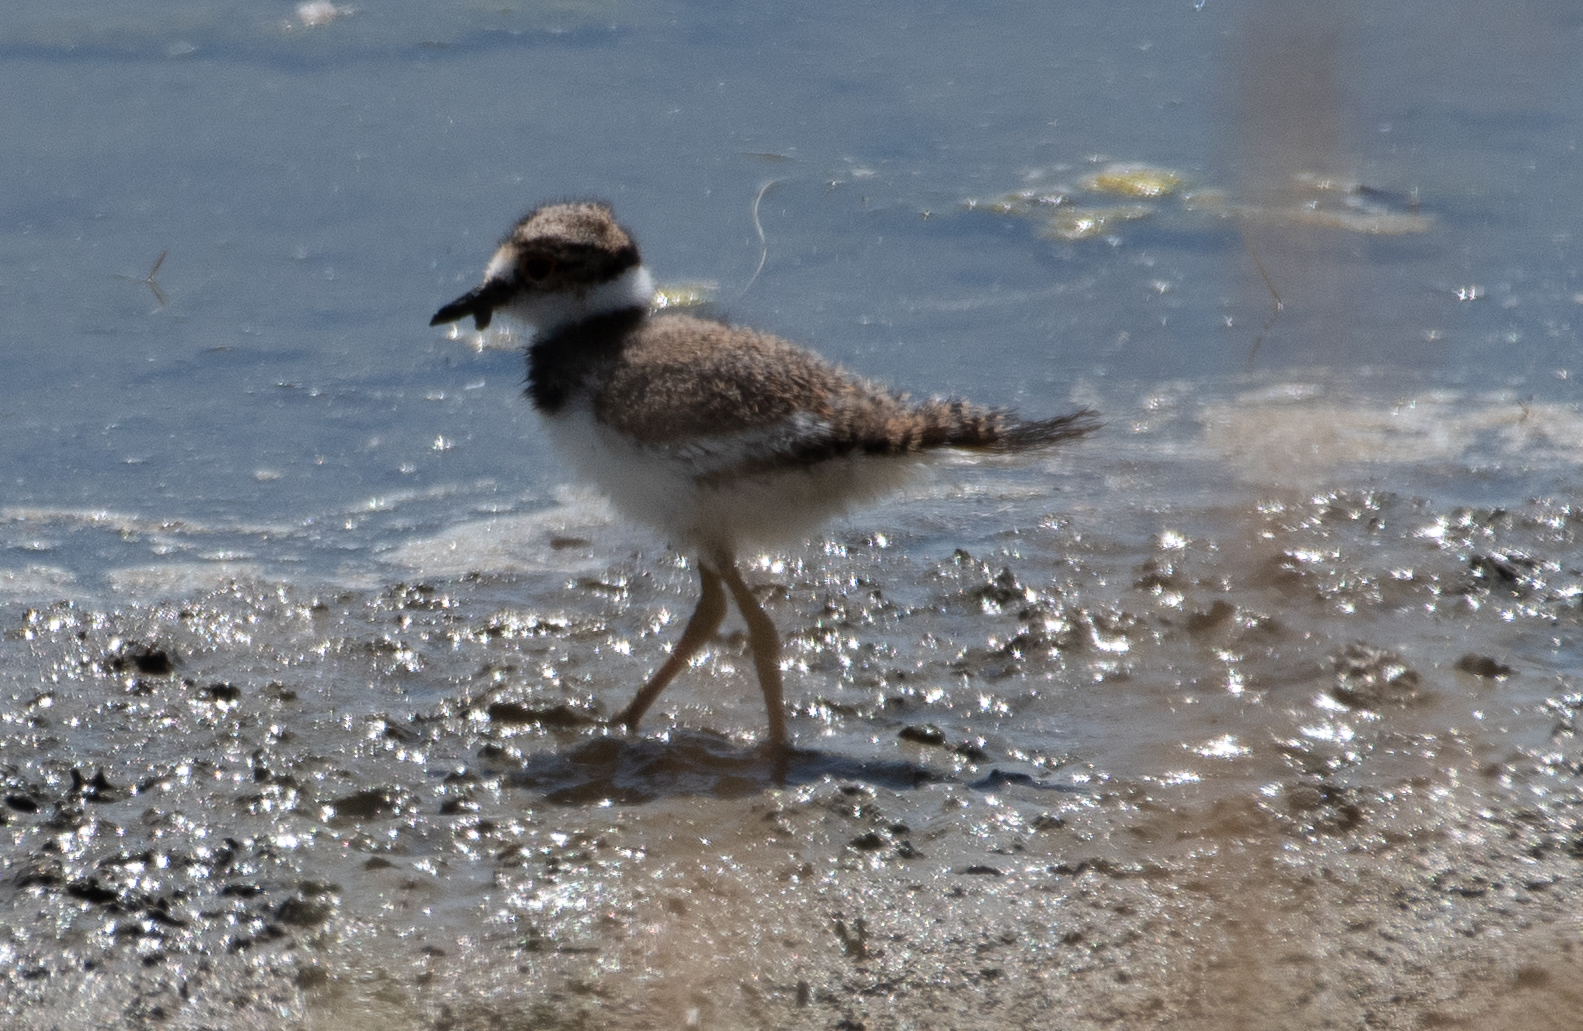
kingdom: Animalia
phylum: Chordata
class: Aves
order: Charadriiformes
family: Charadriidae
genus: Charadrius
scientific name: Charadrius vociferus
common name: Killdeer
